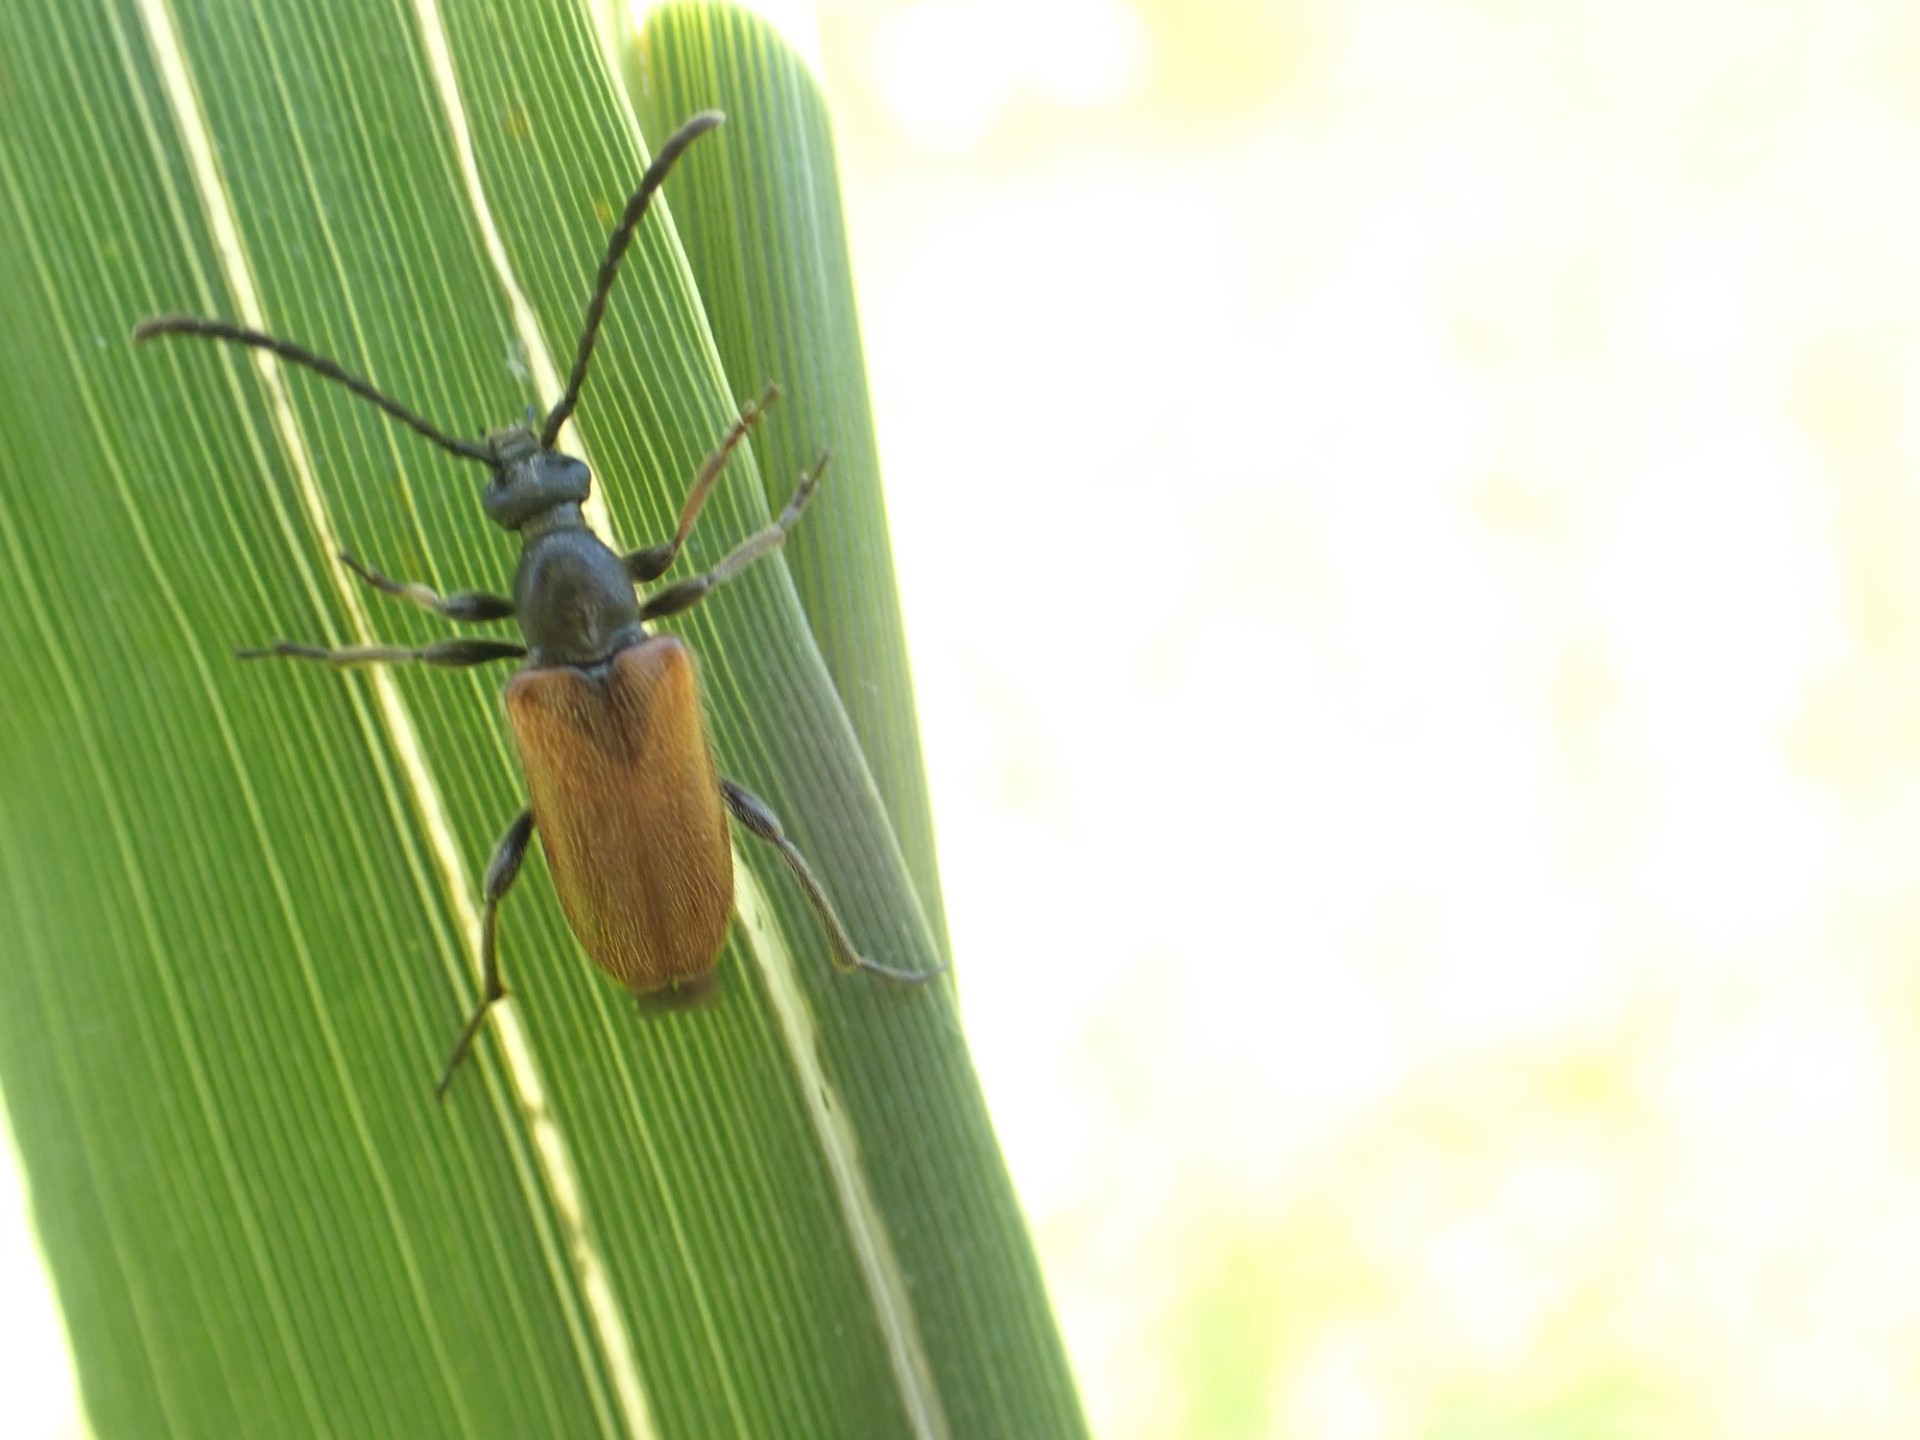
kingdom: Animalia
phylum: Arthropoda
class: Insecta
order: Coleoptera
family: Cerambycidae
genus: Pseudovadonia
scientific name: Pseudovadonia livida
